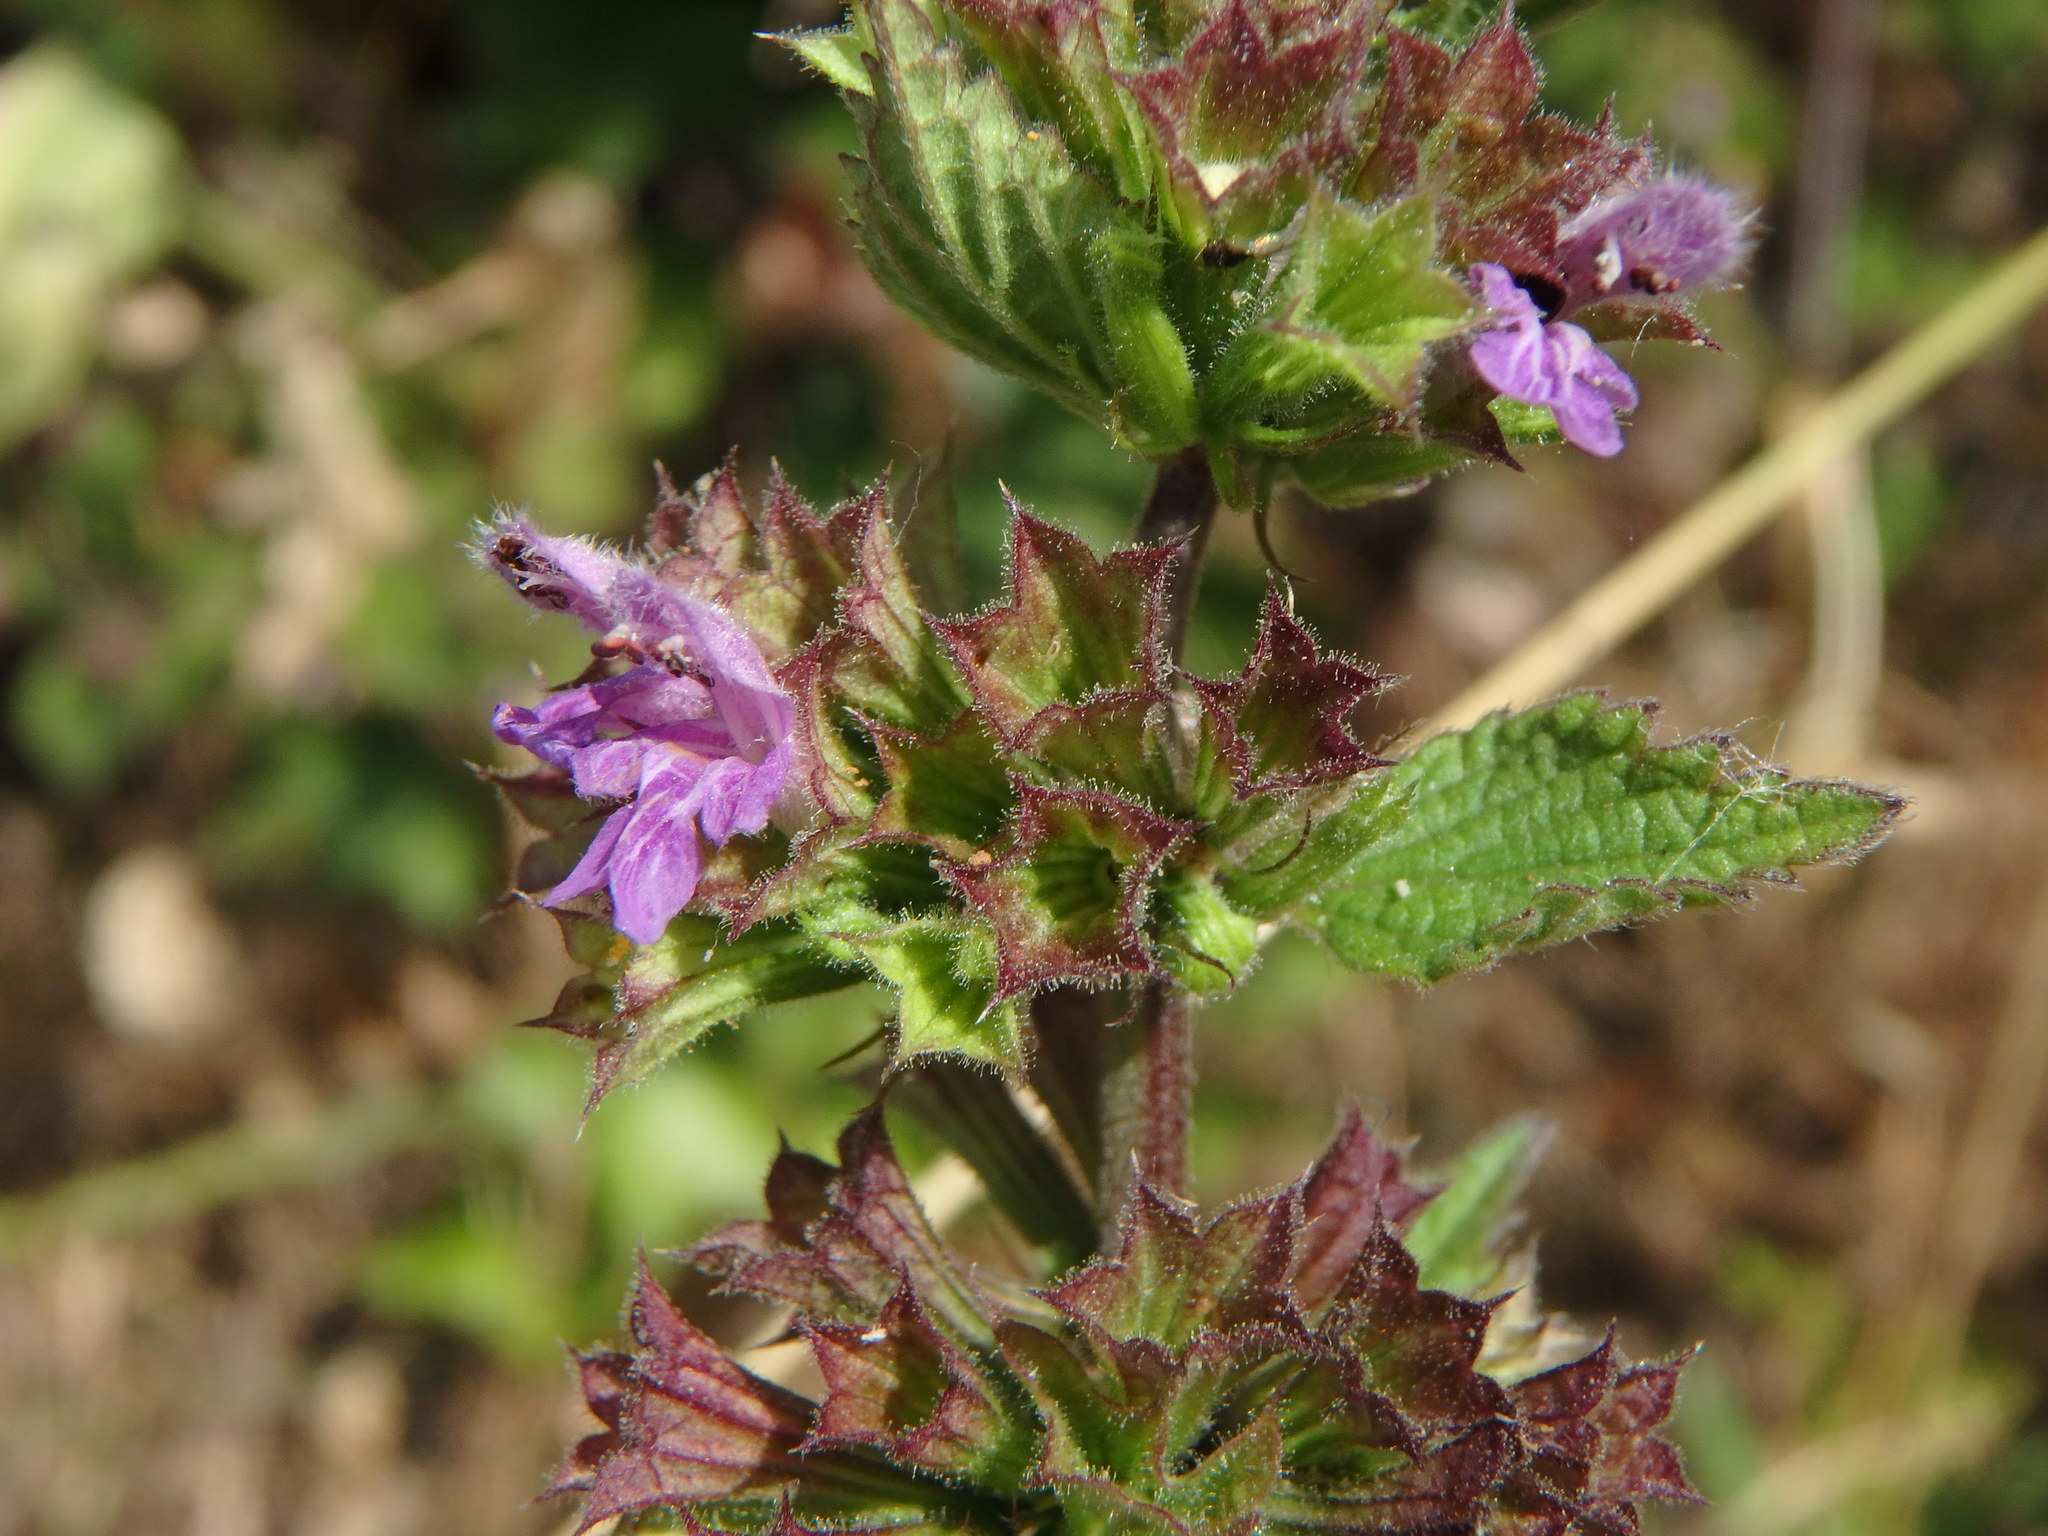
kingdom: Plantae
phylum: Tracheophyta
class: Magnoliopsida
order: Lamiales
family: Lamiaceae
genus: Ballota
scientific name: Ballota nigra
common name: Black horehound
